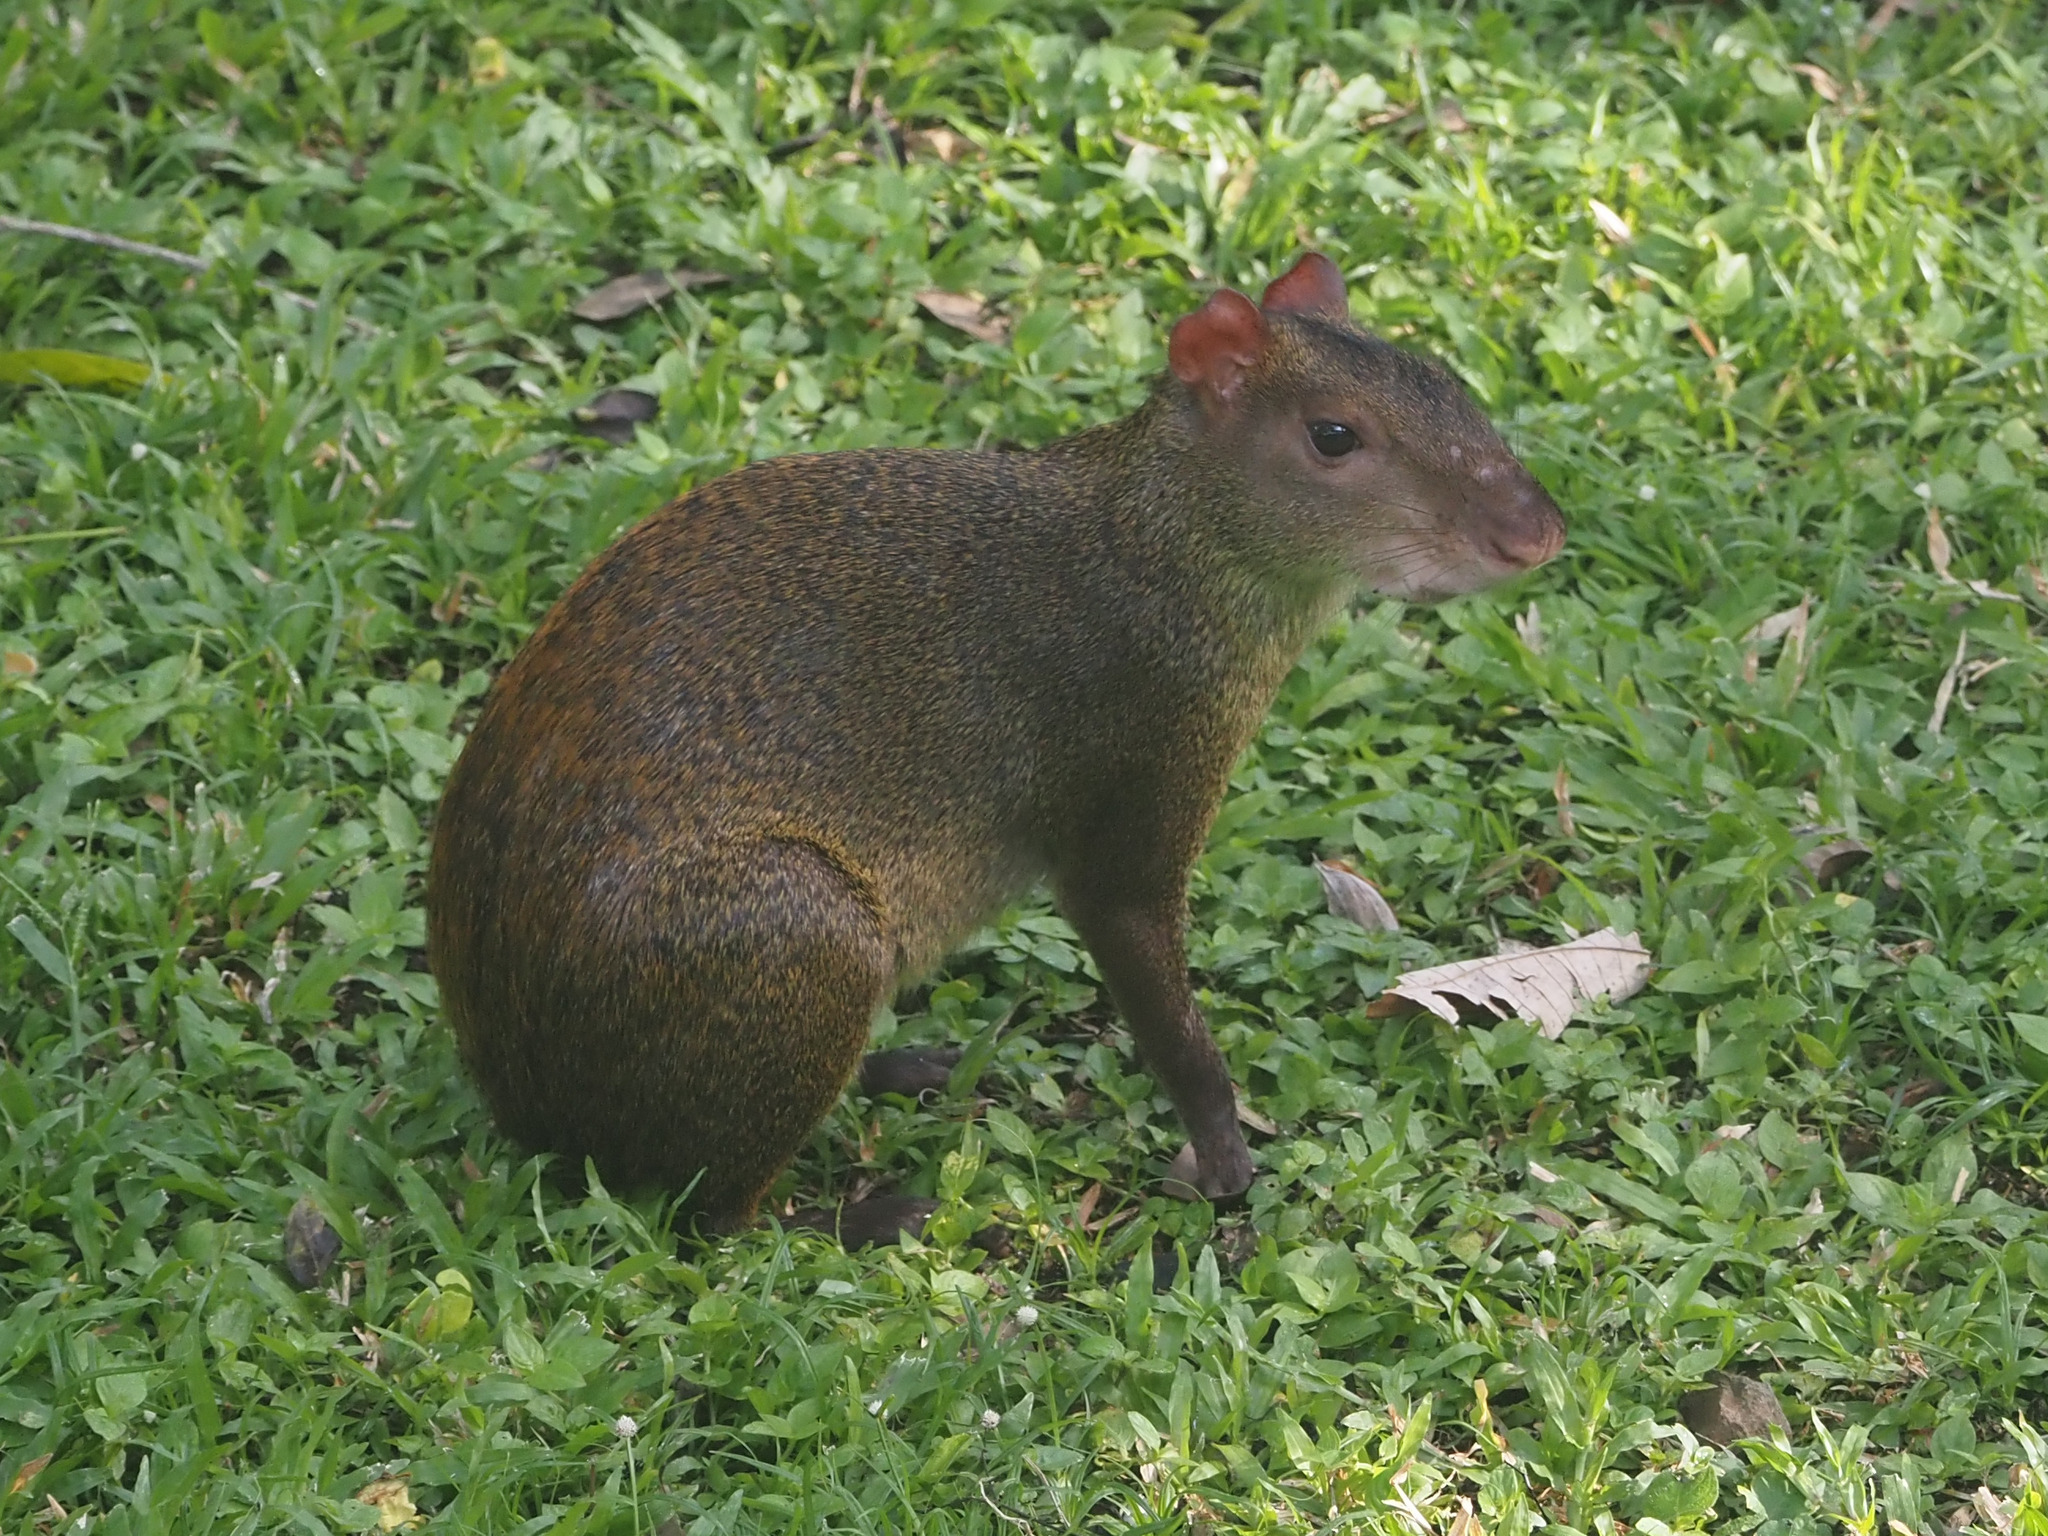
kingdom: Animalia
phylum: Chordata
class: Mammalia
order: Rodentia
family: Dasyproctidae
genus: Dasyprocta
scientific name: Dasyprocta punctata
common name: Central american agouti
